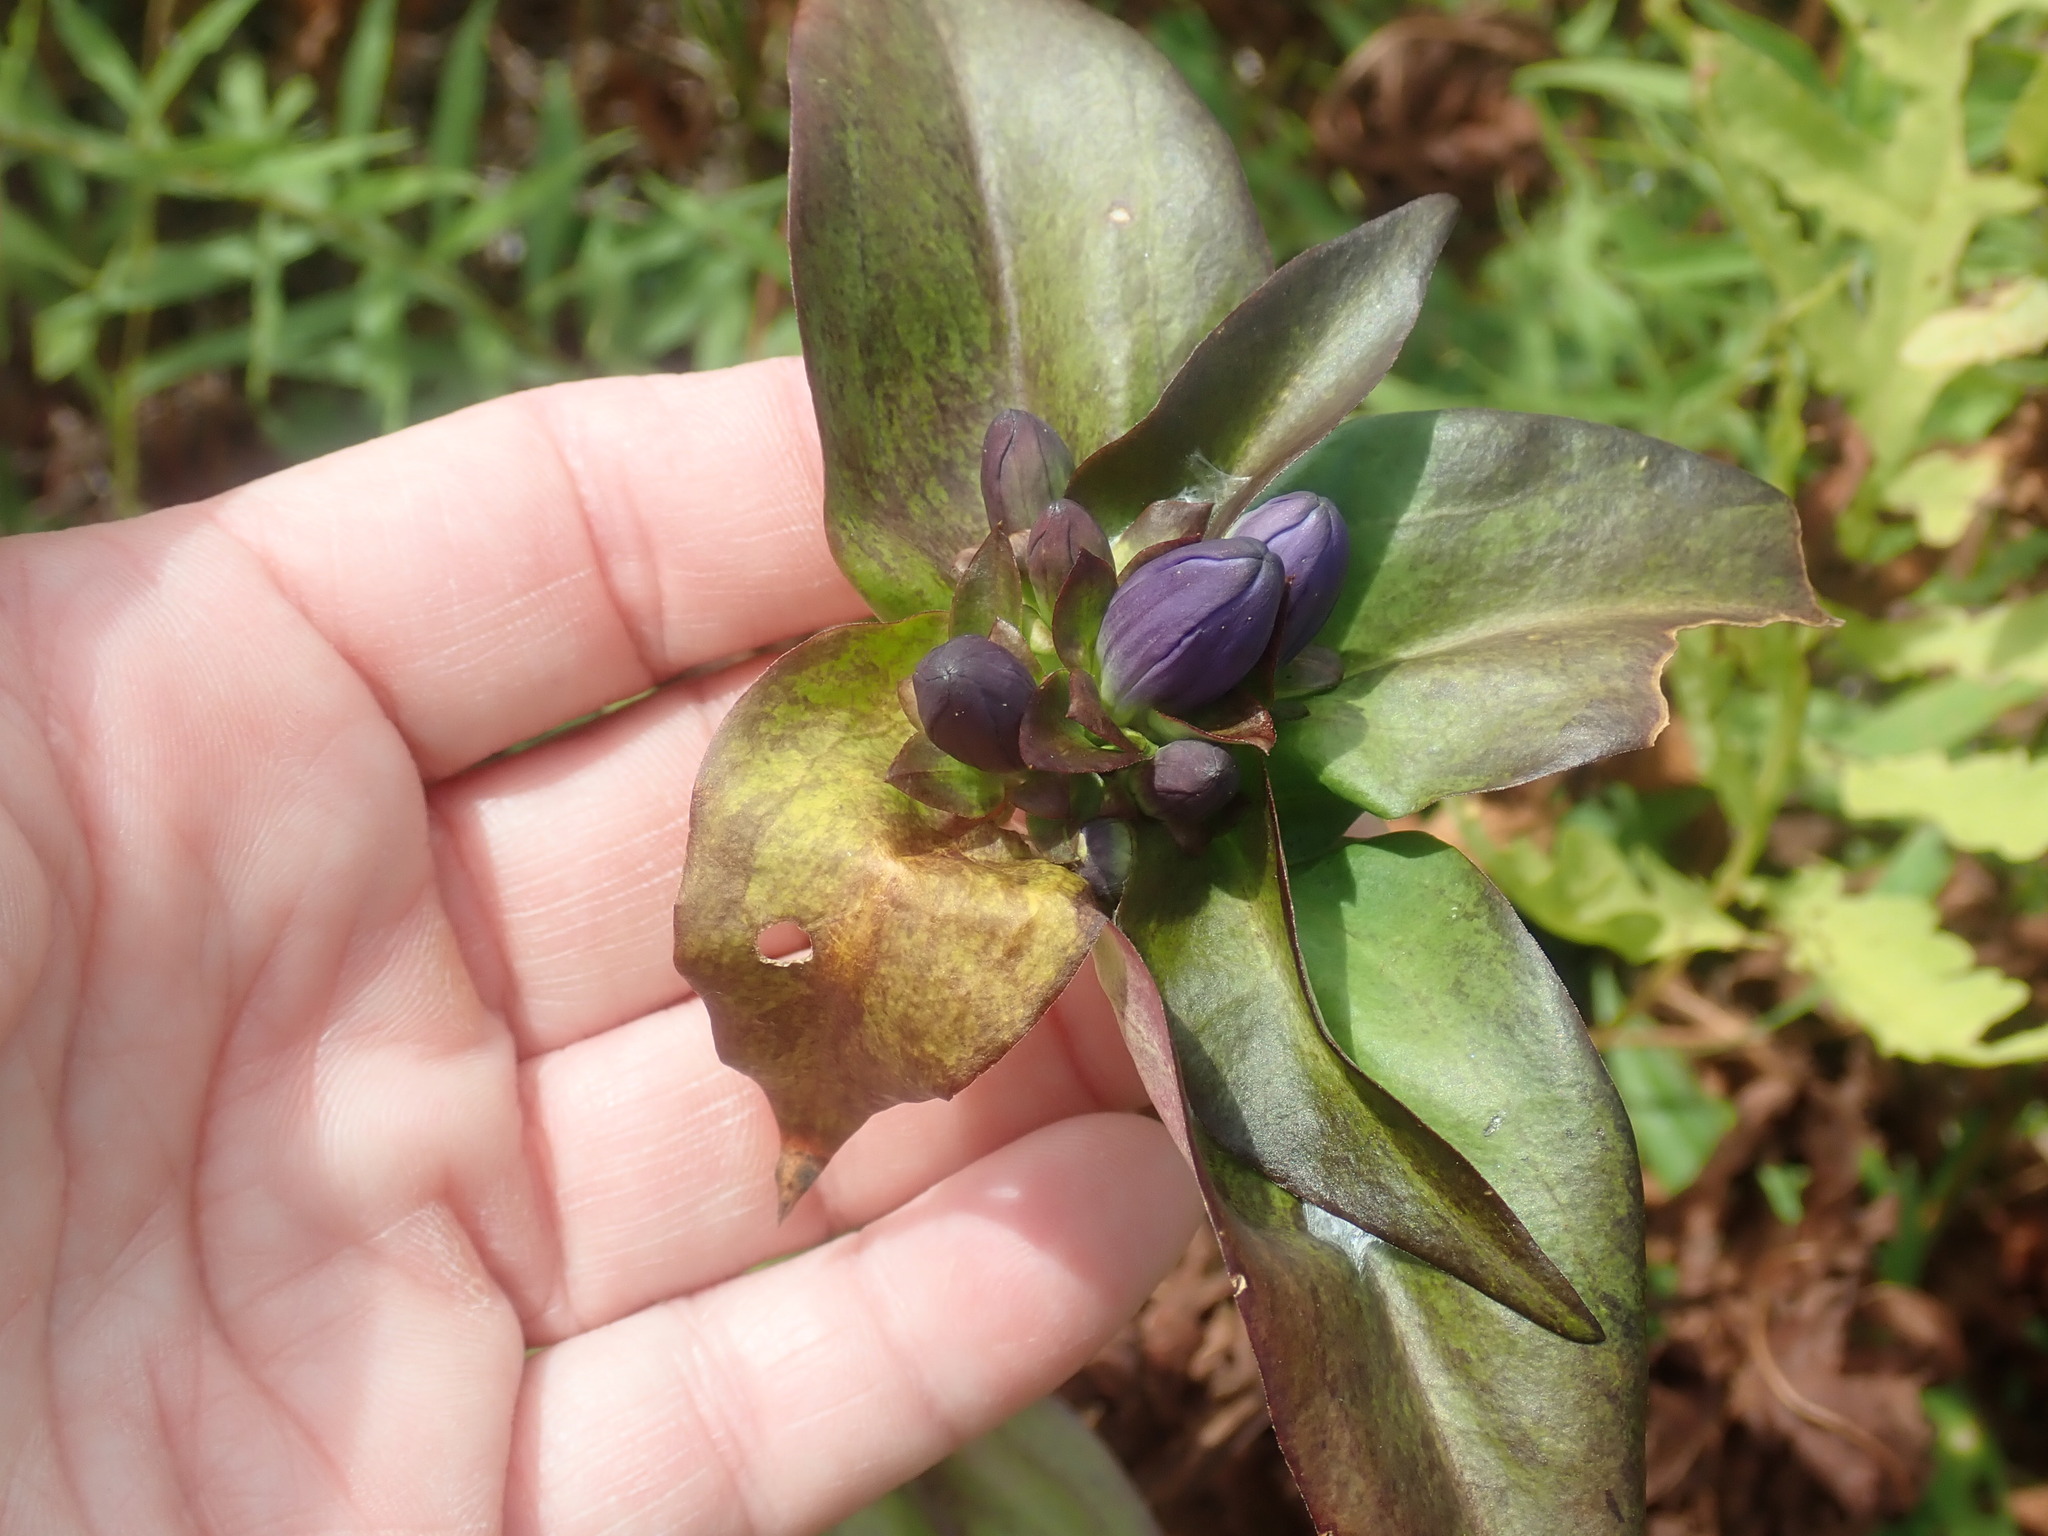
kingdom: Plantae
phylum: Tracheophyta
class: Magnoliopsida
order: Gentianales
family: Gentianaceae
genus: Gentiana
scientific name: Gentiana clausa
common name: Blind gentian
